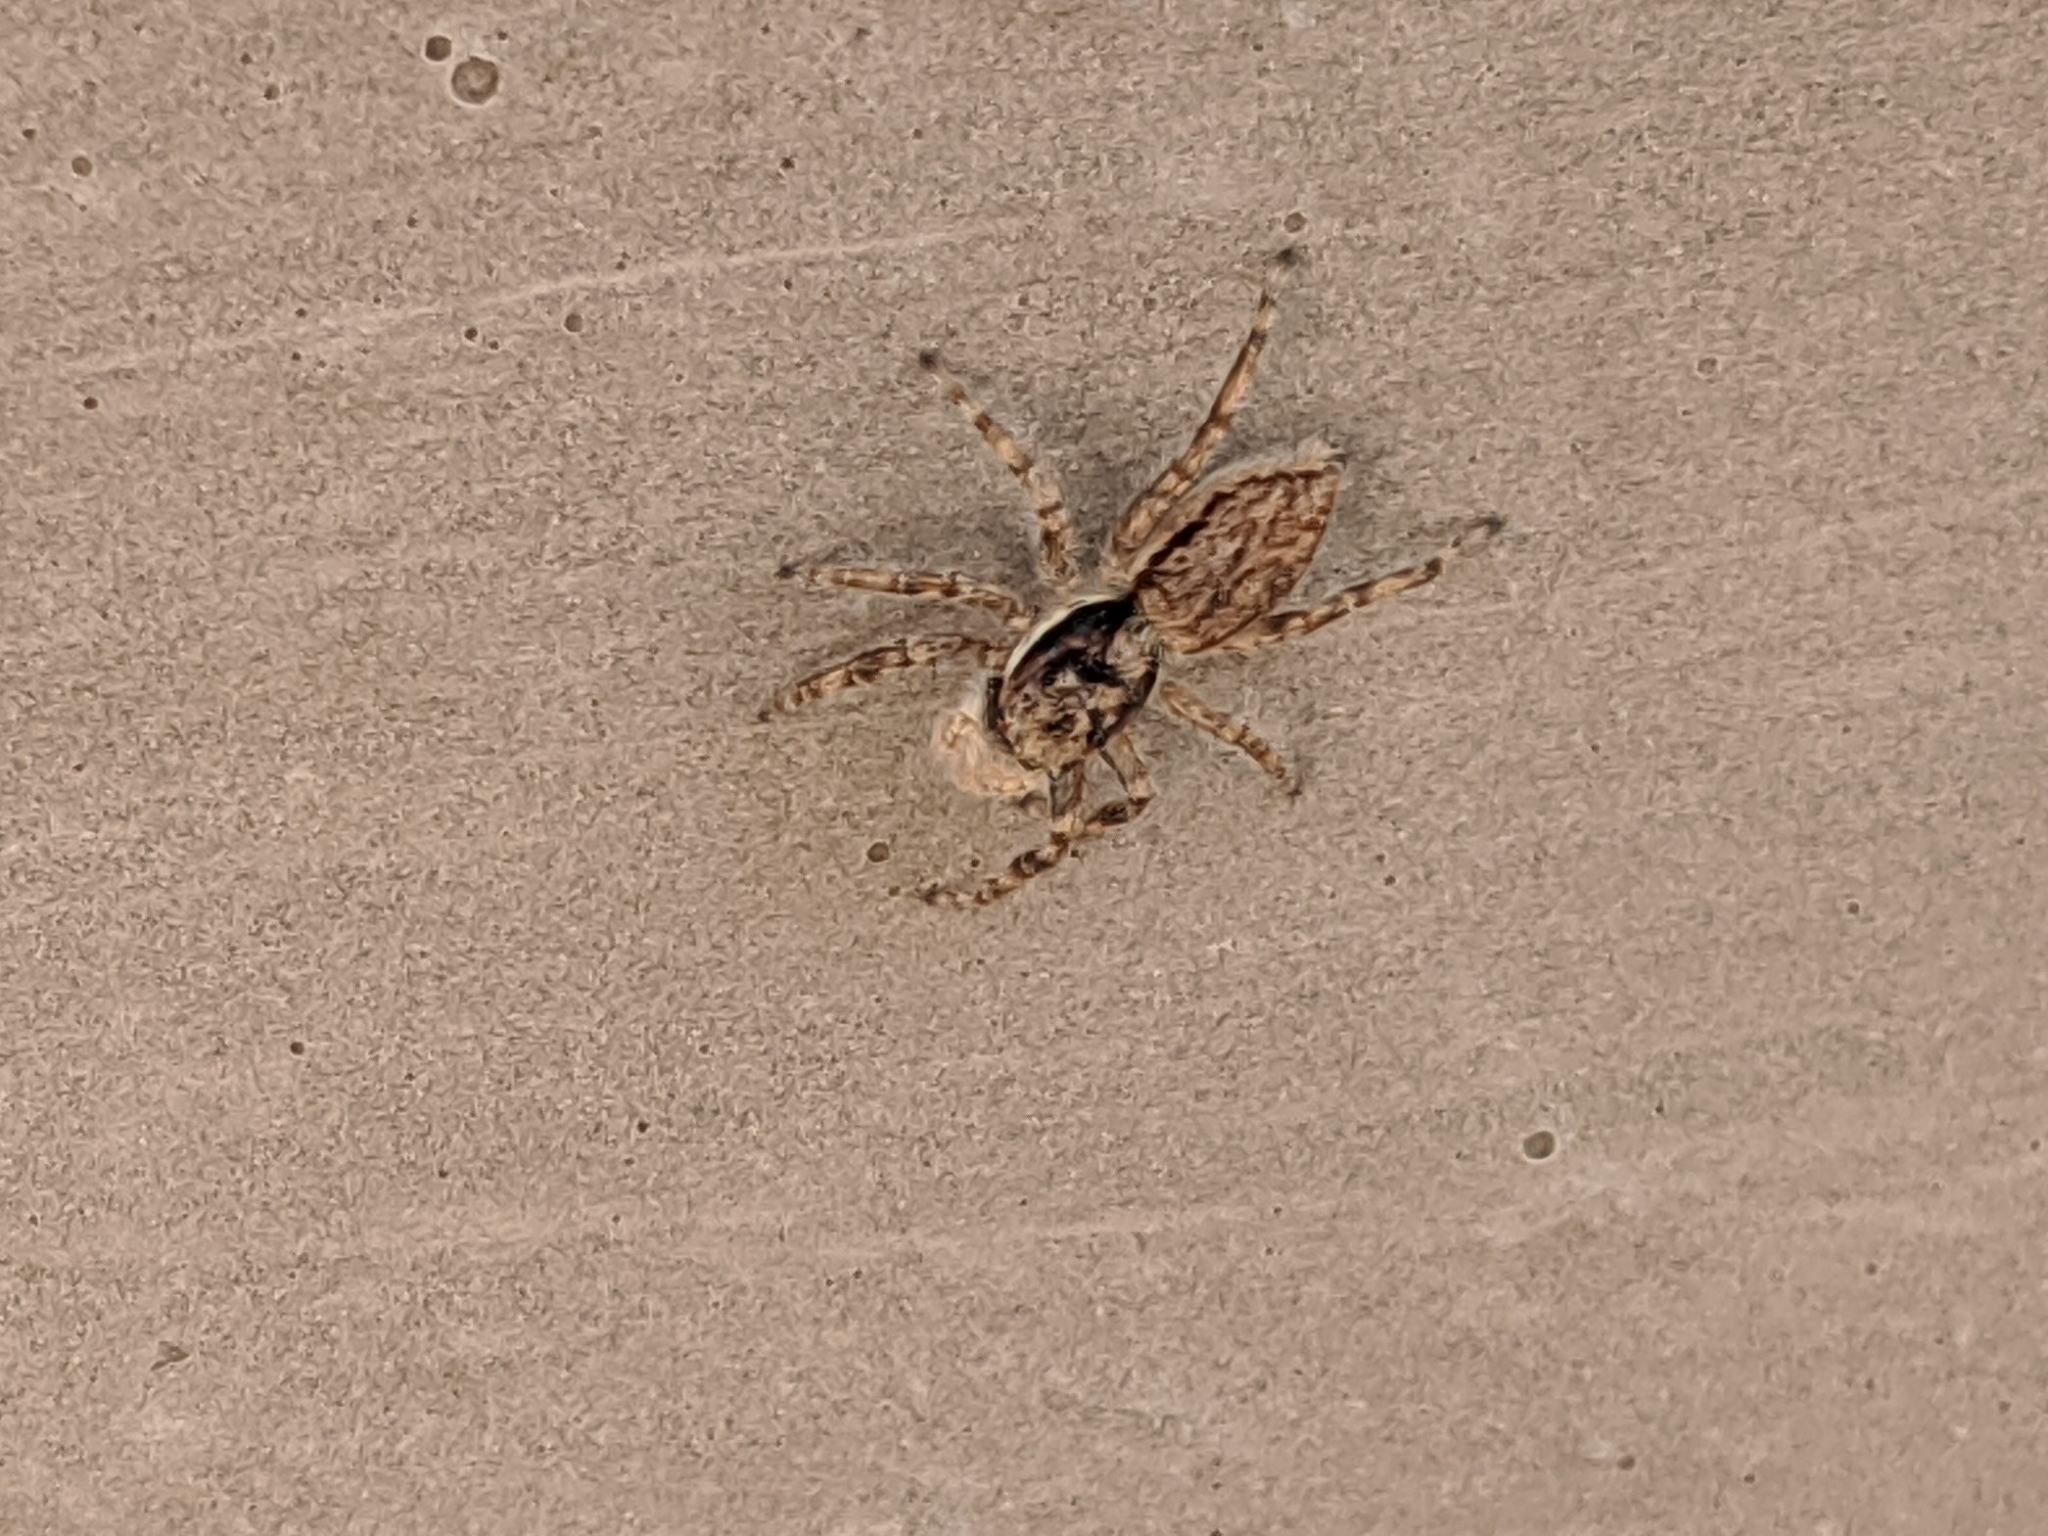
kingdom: Animalia
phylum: Arthropoda
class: Arachnida
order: Araneae
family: Salticidae
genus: Menemerus
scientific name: Menemerus bivittatus
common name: Gray wall jumper
